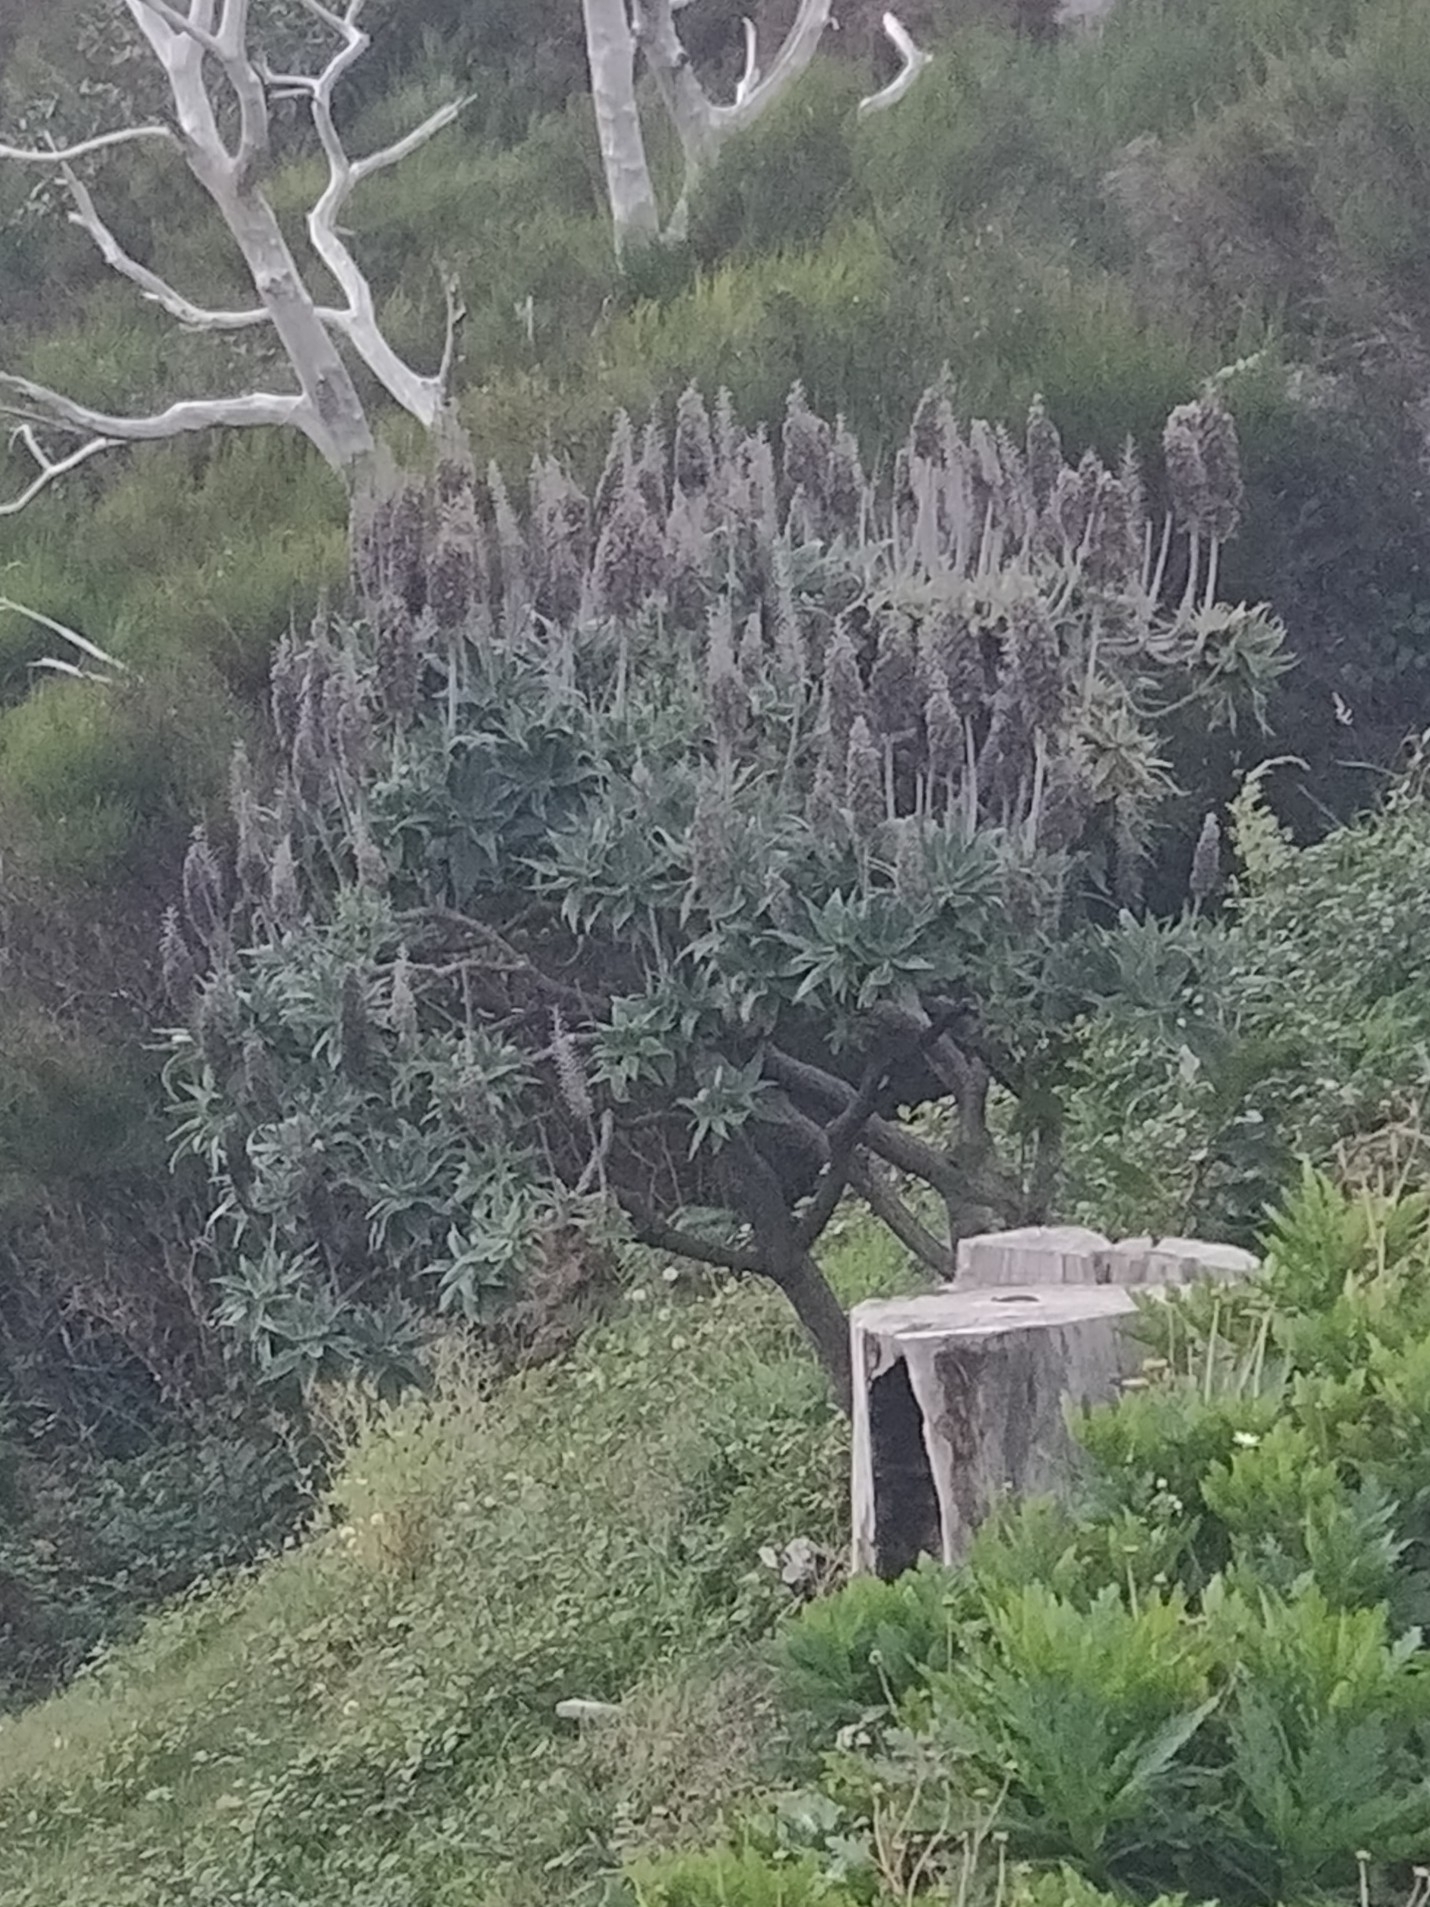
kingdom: Plantae
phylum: Tracheophyta
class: Magnoliopsida
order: Boraginales
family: Boraginaceae
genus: Echium
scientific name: Echium candicans
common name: Pride of madeira
